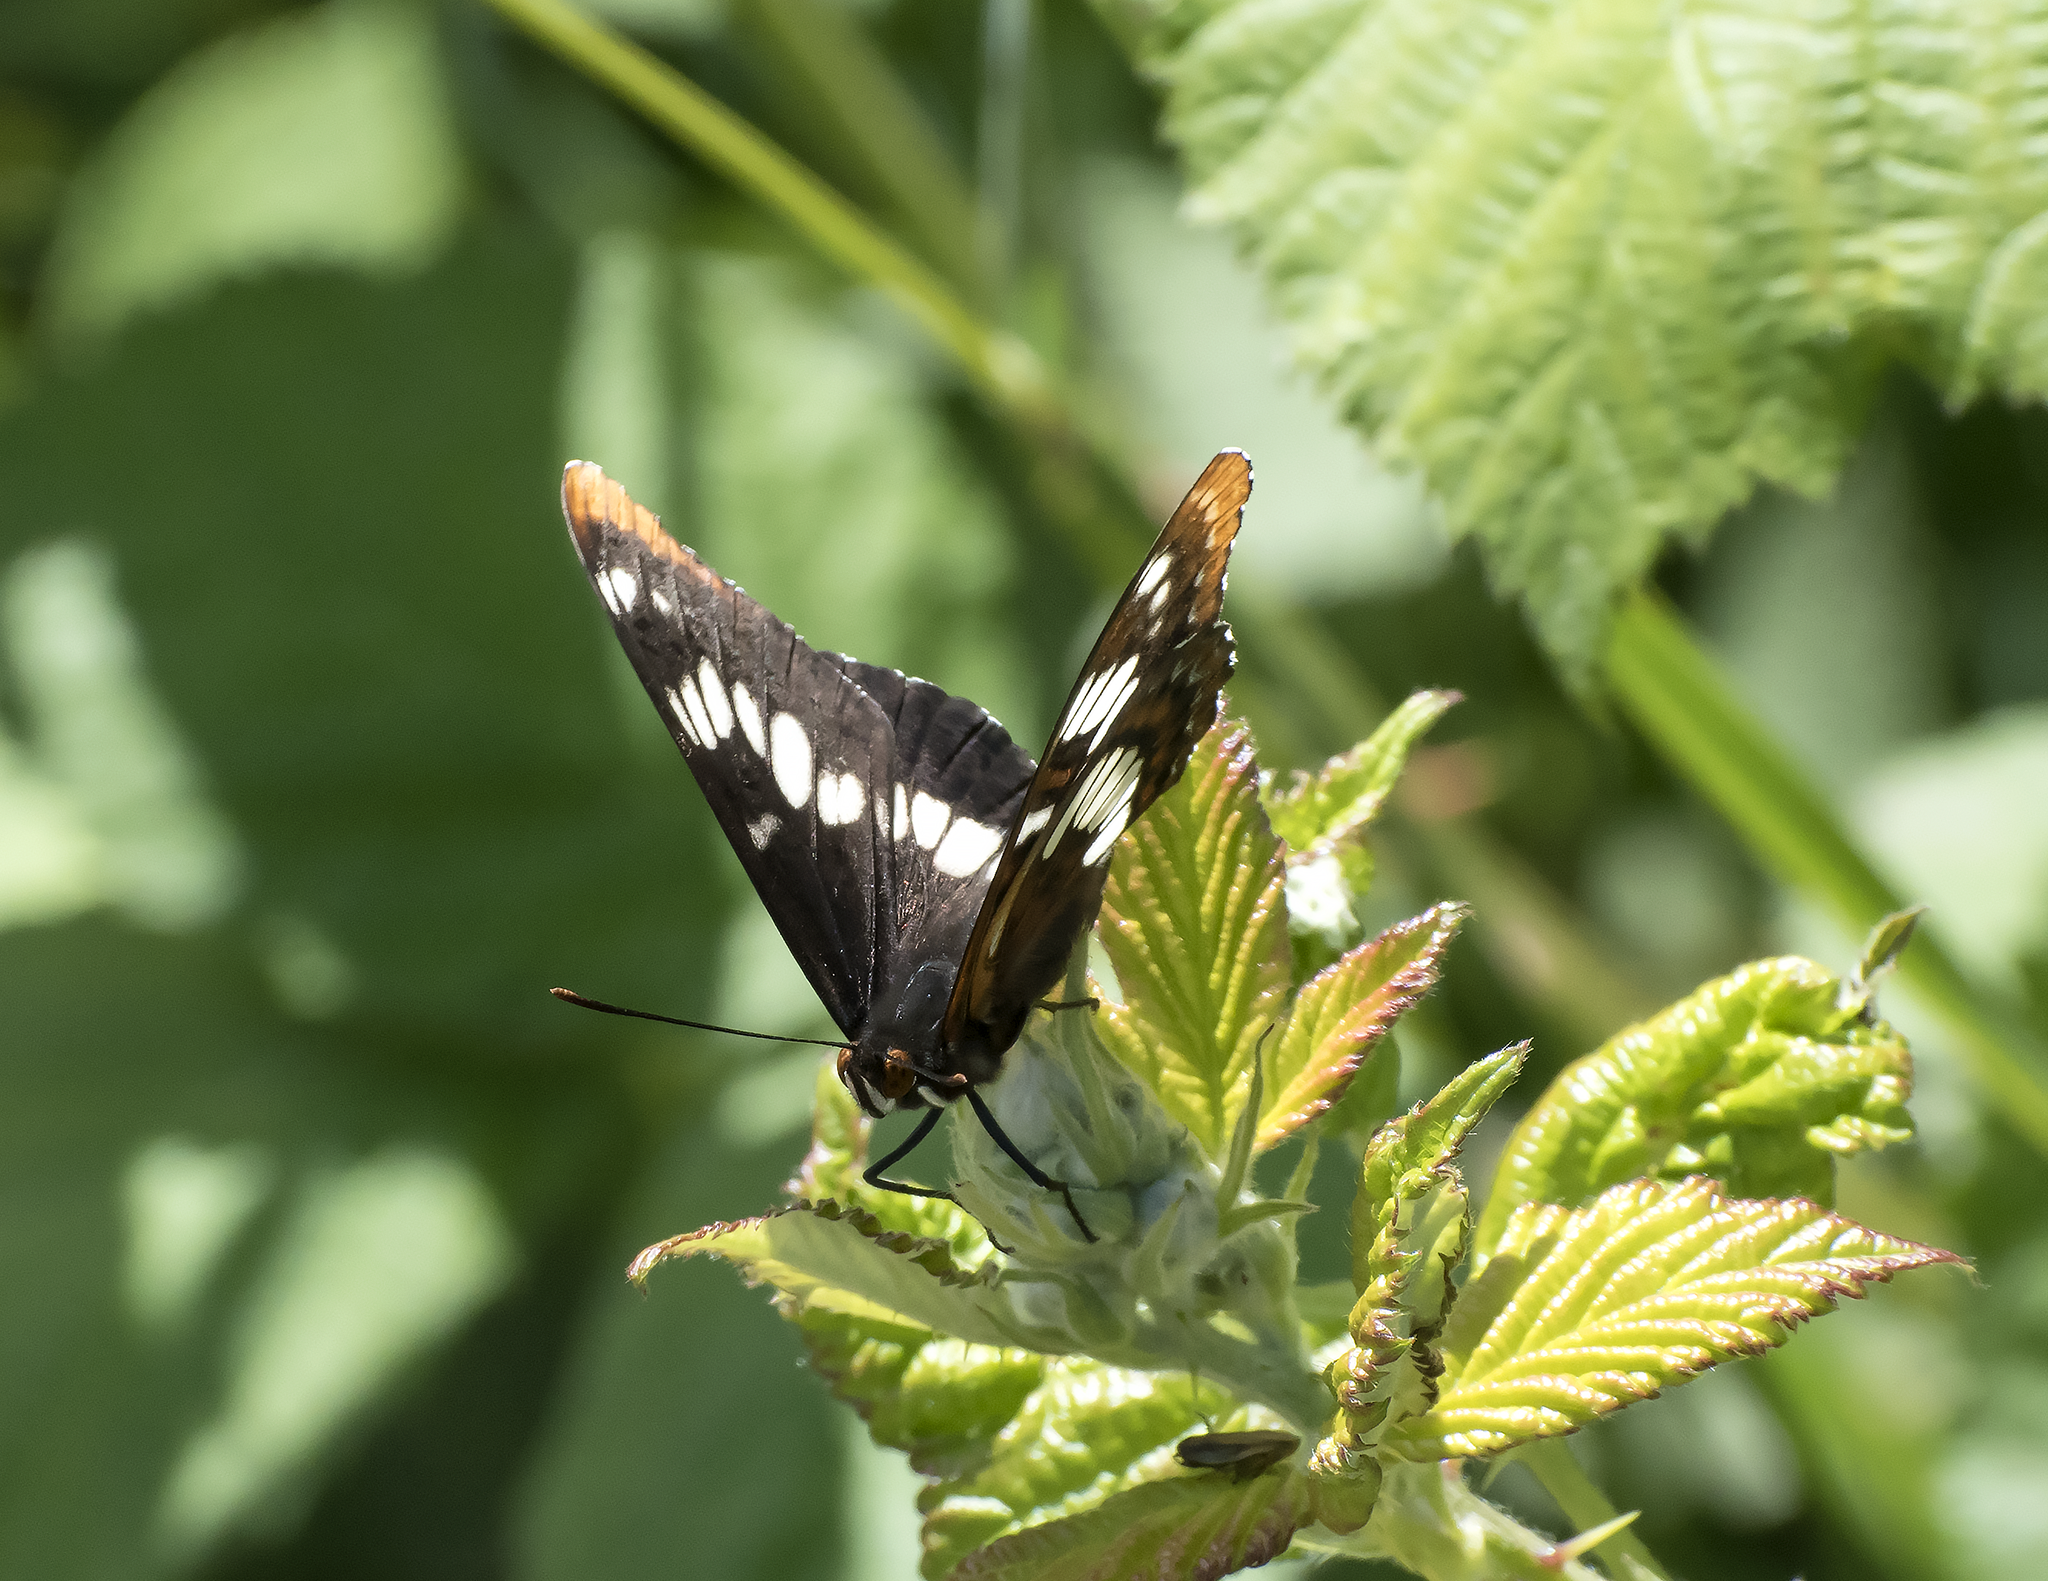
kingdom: Animalia
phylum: Arthropoda
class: Insecta
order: Lepidoptera
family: Nymphalidae
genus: Limenitis
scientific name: Limenitis lorquini
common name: Lorquin's admiral
